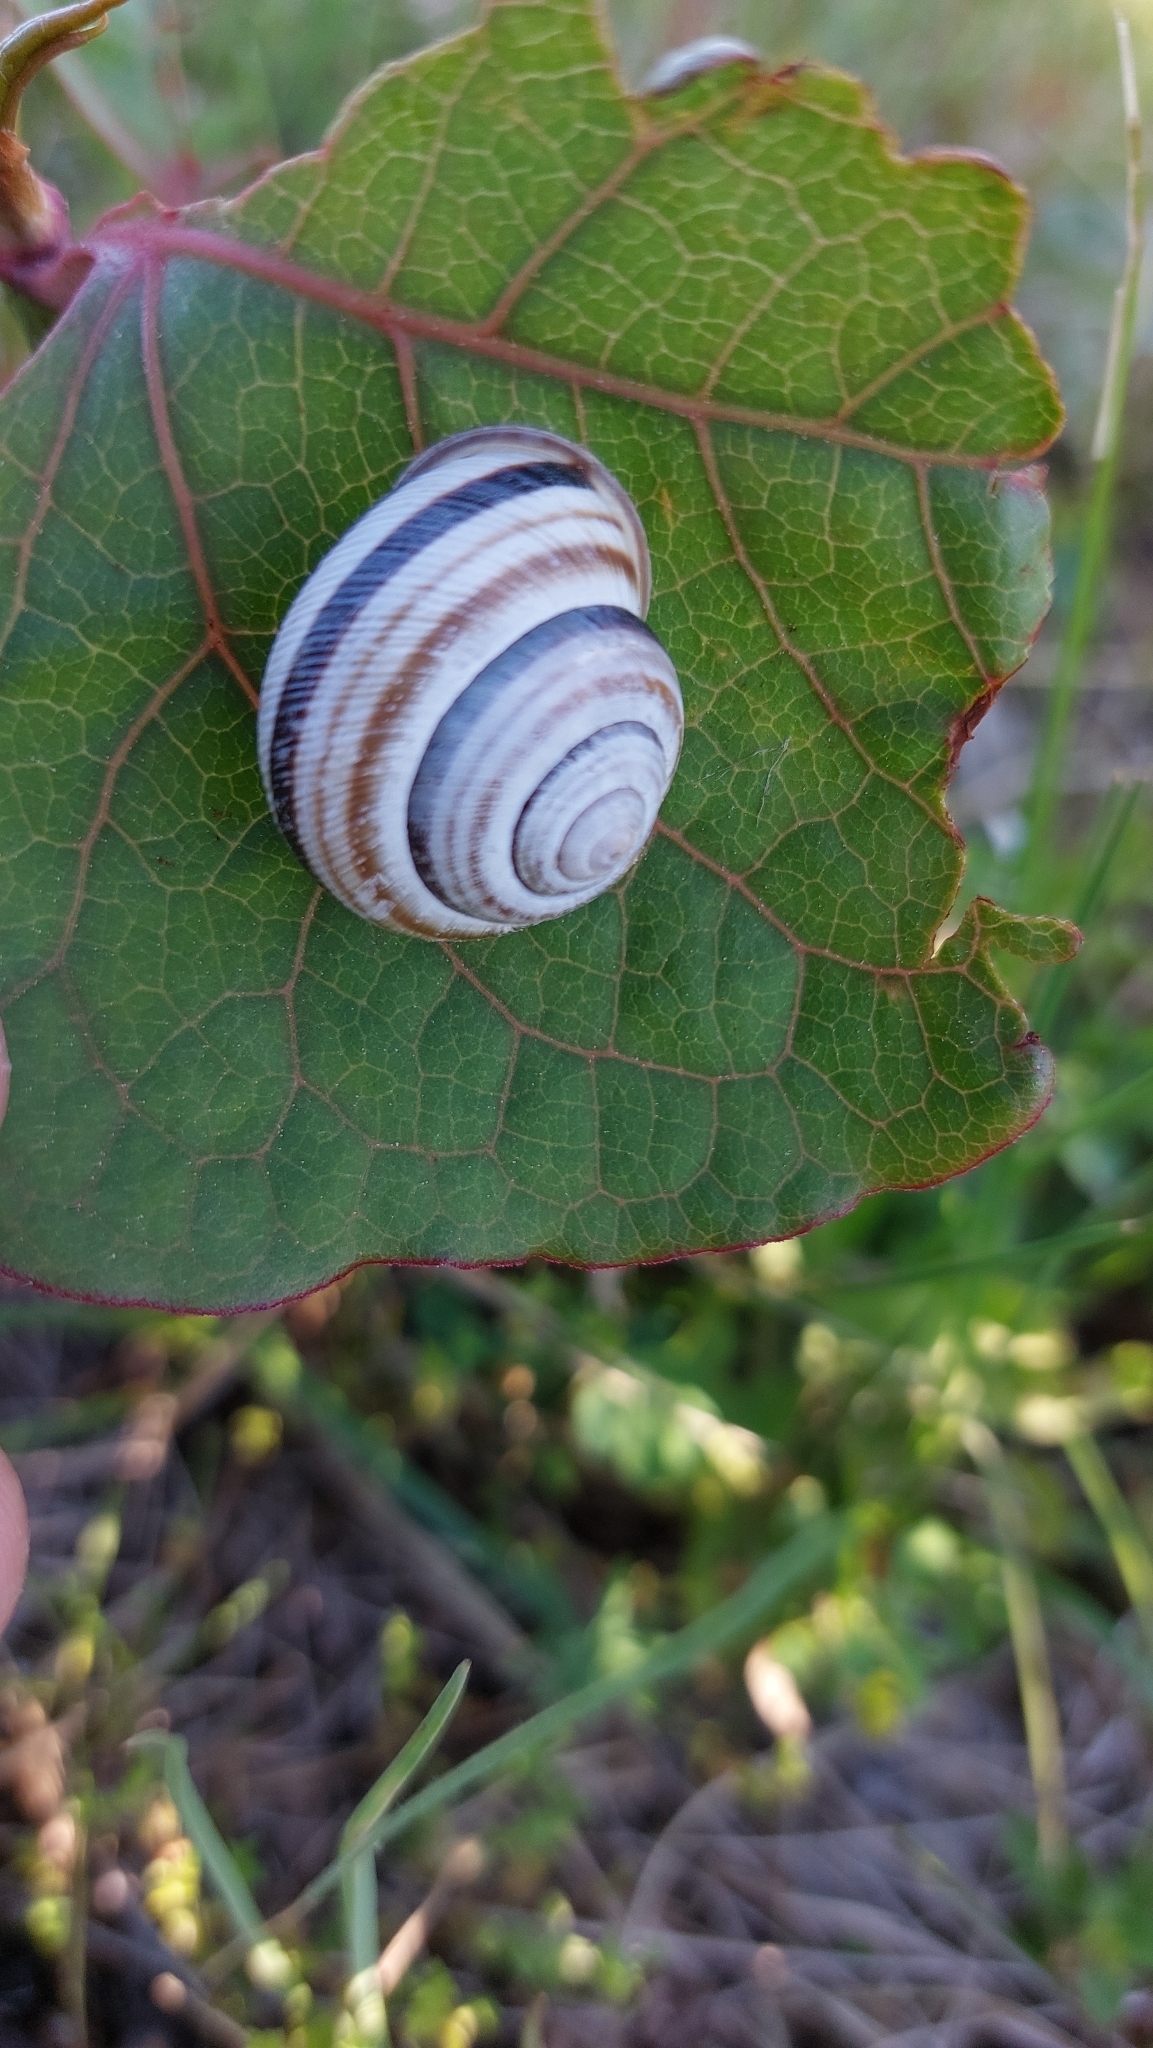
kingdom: Animalia
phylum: Mollusca
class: Gastropoda
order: Stylommatophora
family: Helicidae
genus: Caucasotachea
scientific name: Caucasotachea vindobonensis
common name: European helicid land snail
